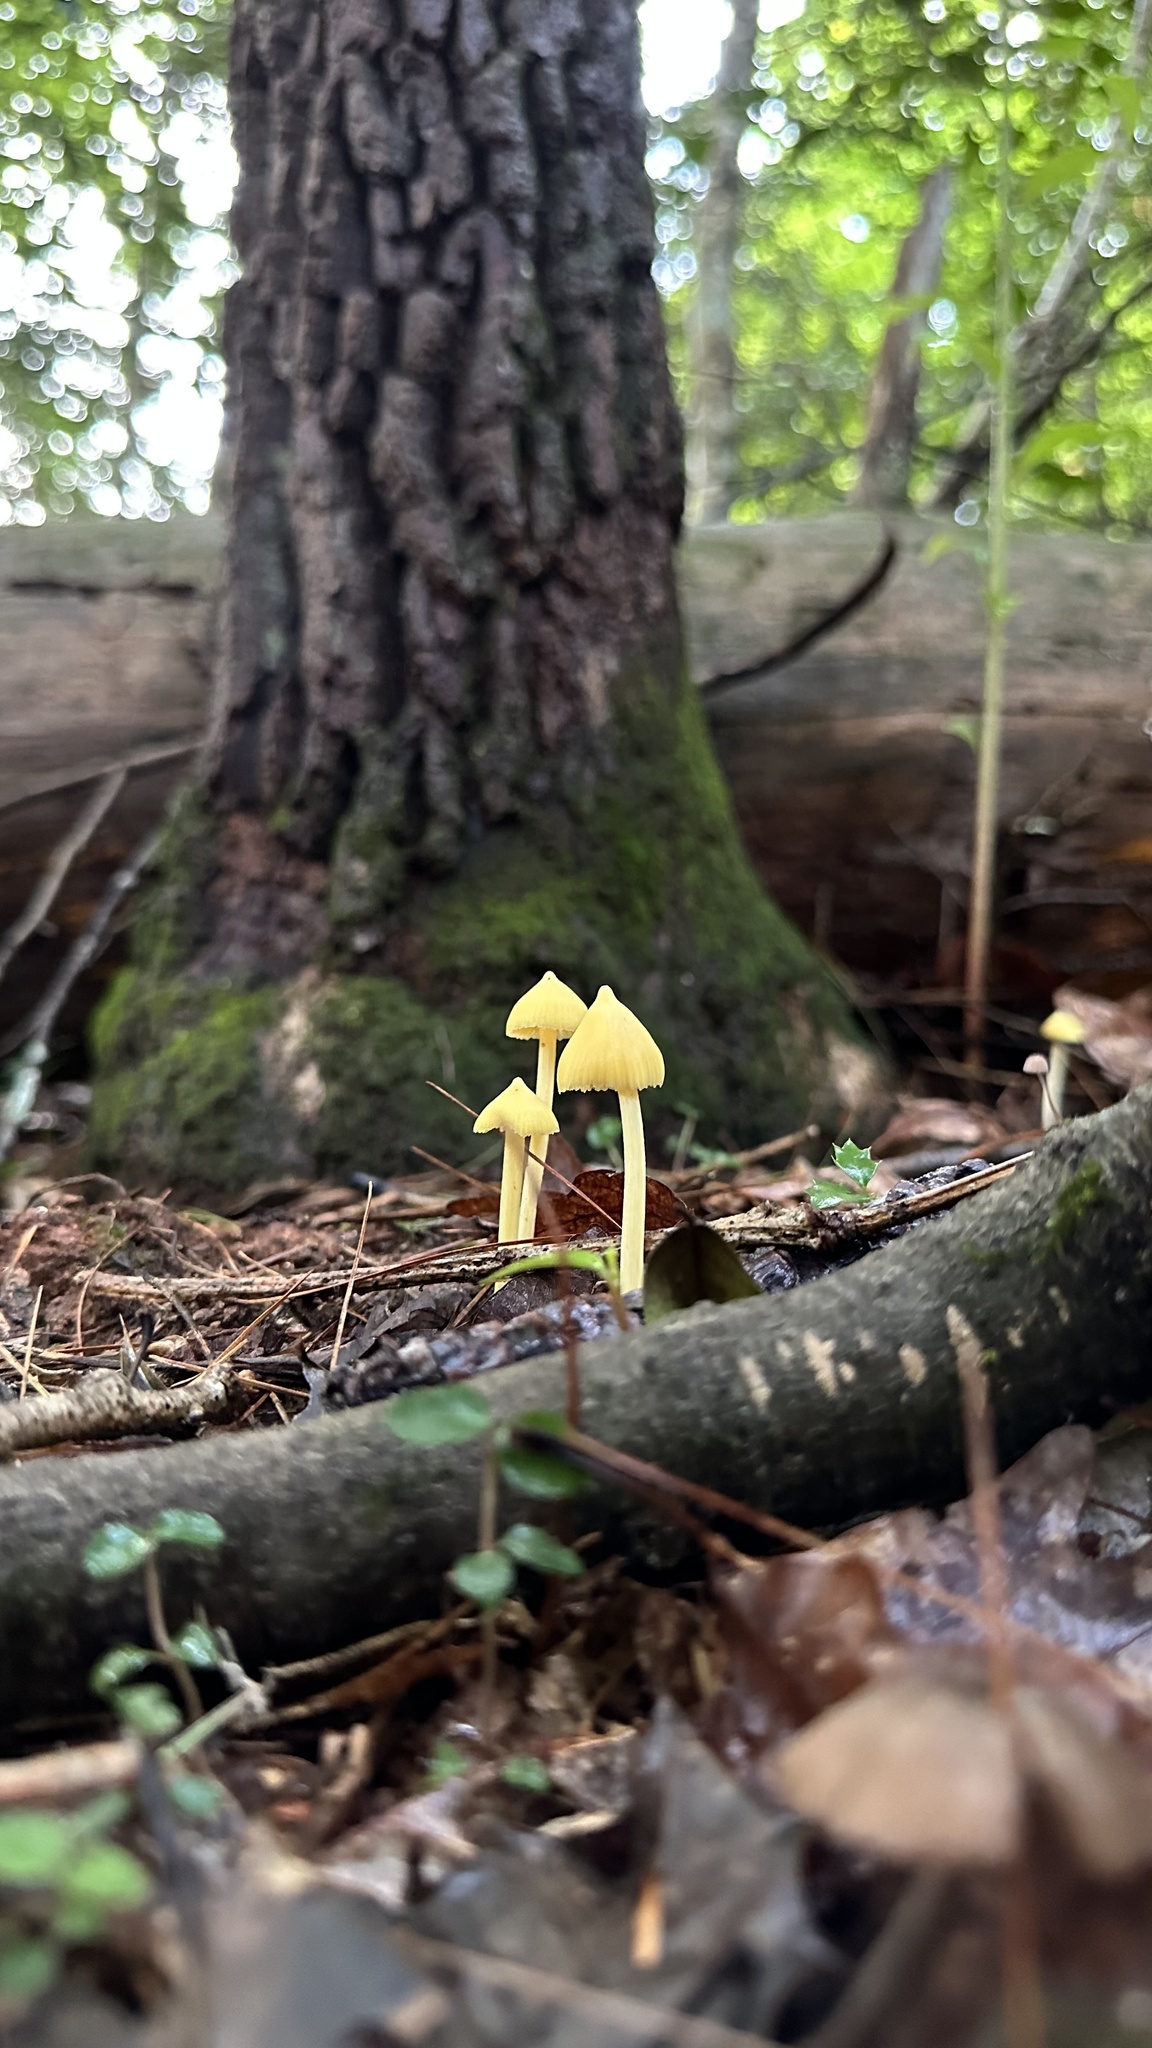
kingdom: Fungi
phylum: Basidiomycota
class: Agaricomycetes
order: Agaricales
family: Entolomataceae
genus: Entoloma
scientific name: Entoloma murrayi
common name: Yellow unicorn entoloma
